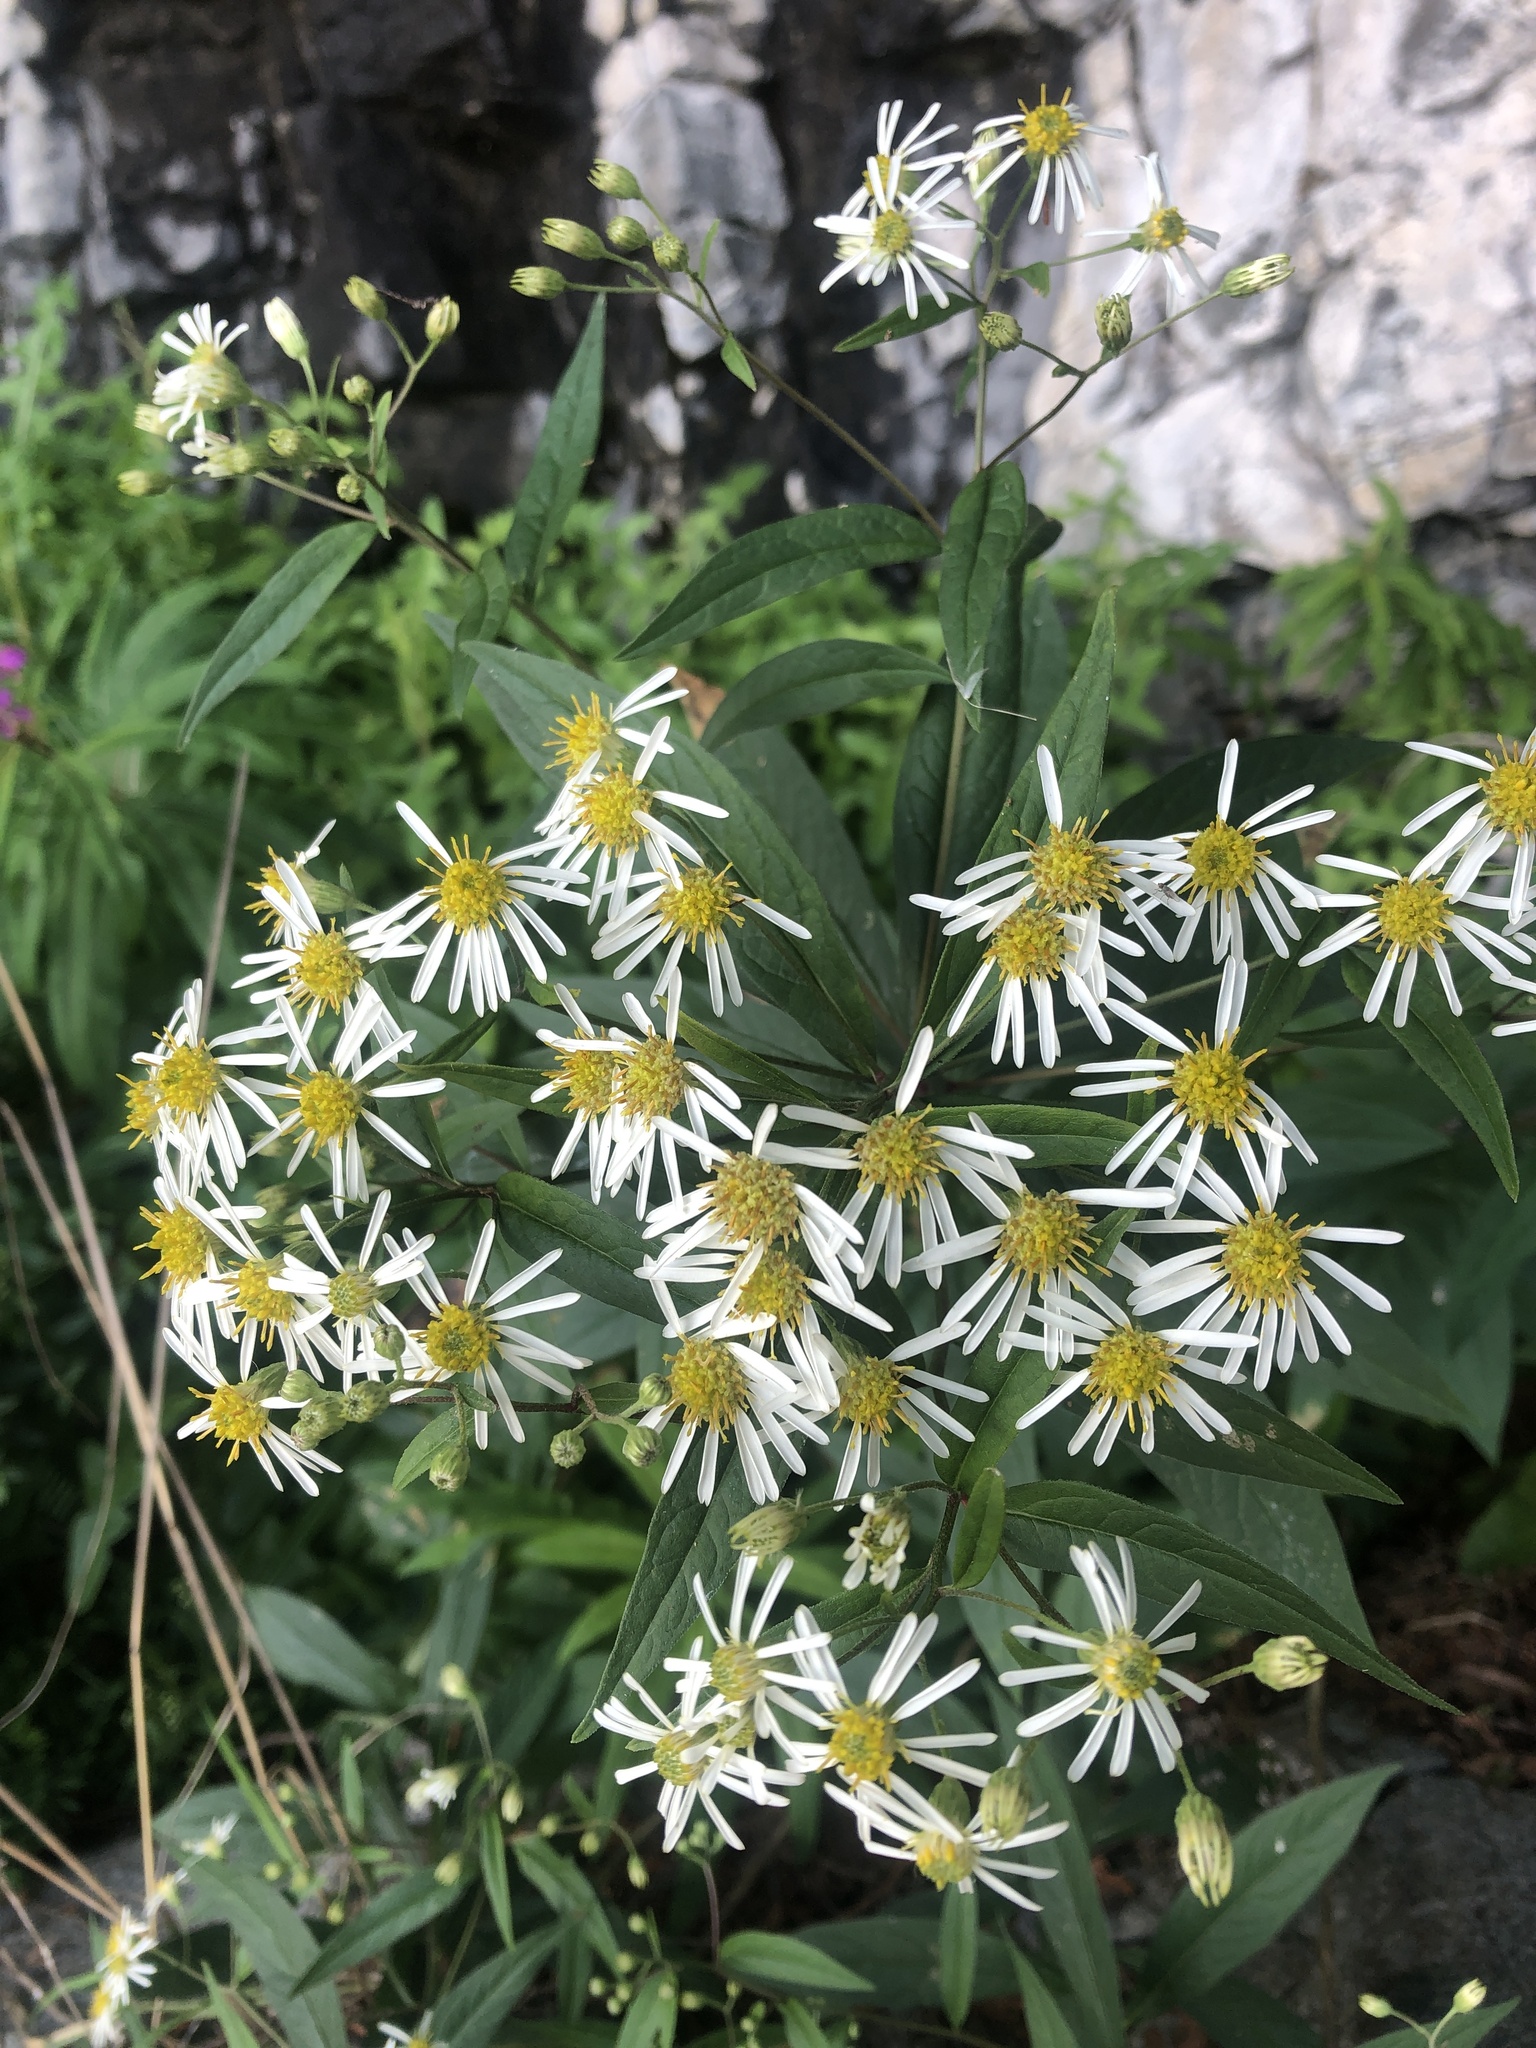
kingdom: Plantae
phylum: Tracheophyta
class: Magnoliopsida
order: Asterales
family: Asteraceae
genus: Doellingeria
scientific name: Doellingeria umbellata
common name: Flat-top white aster
